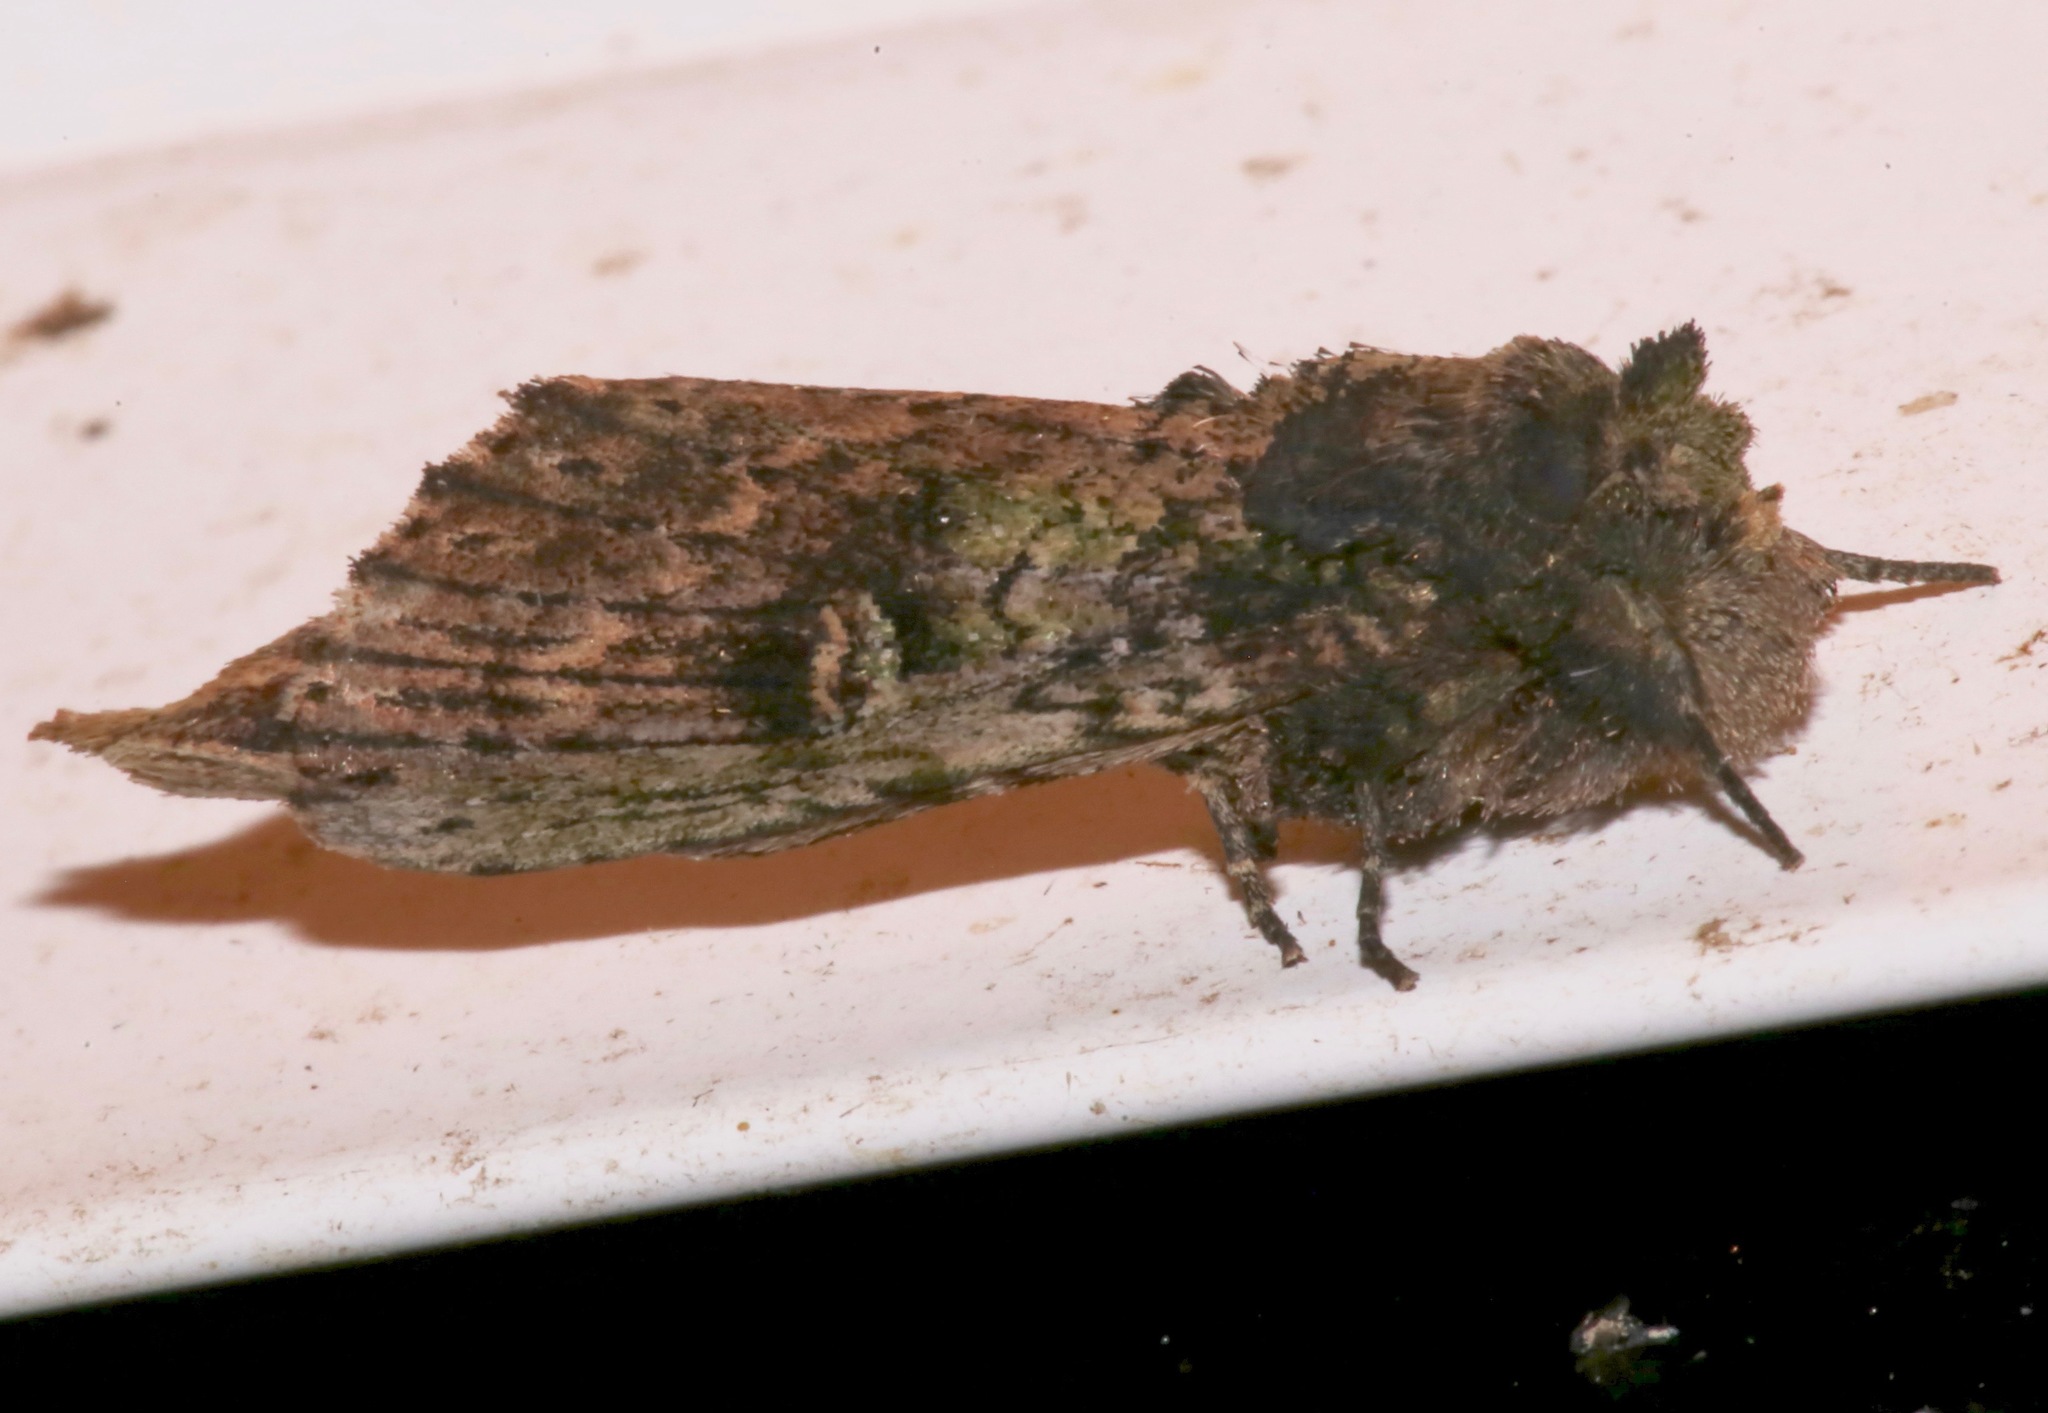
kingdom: Animalia
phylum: Arthropoda
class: Insecta
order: Lepidoptera
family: Notodontidae
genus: Schizura
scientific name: Schizura ipomaeae
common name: Morning-glory prominent
